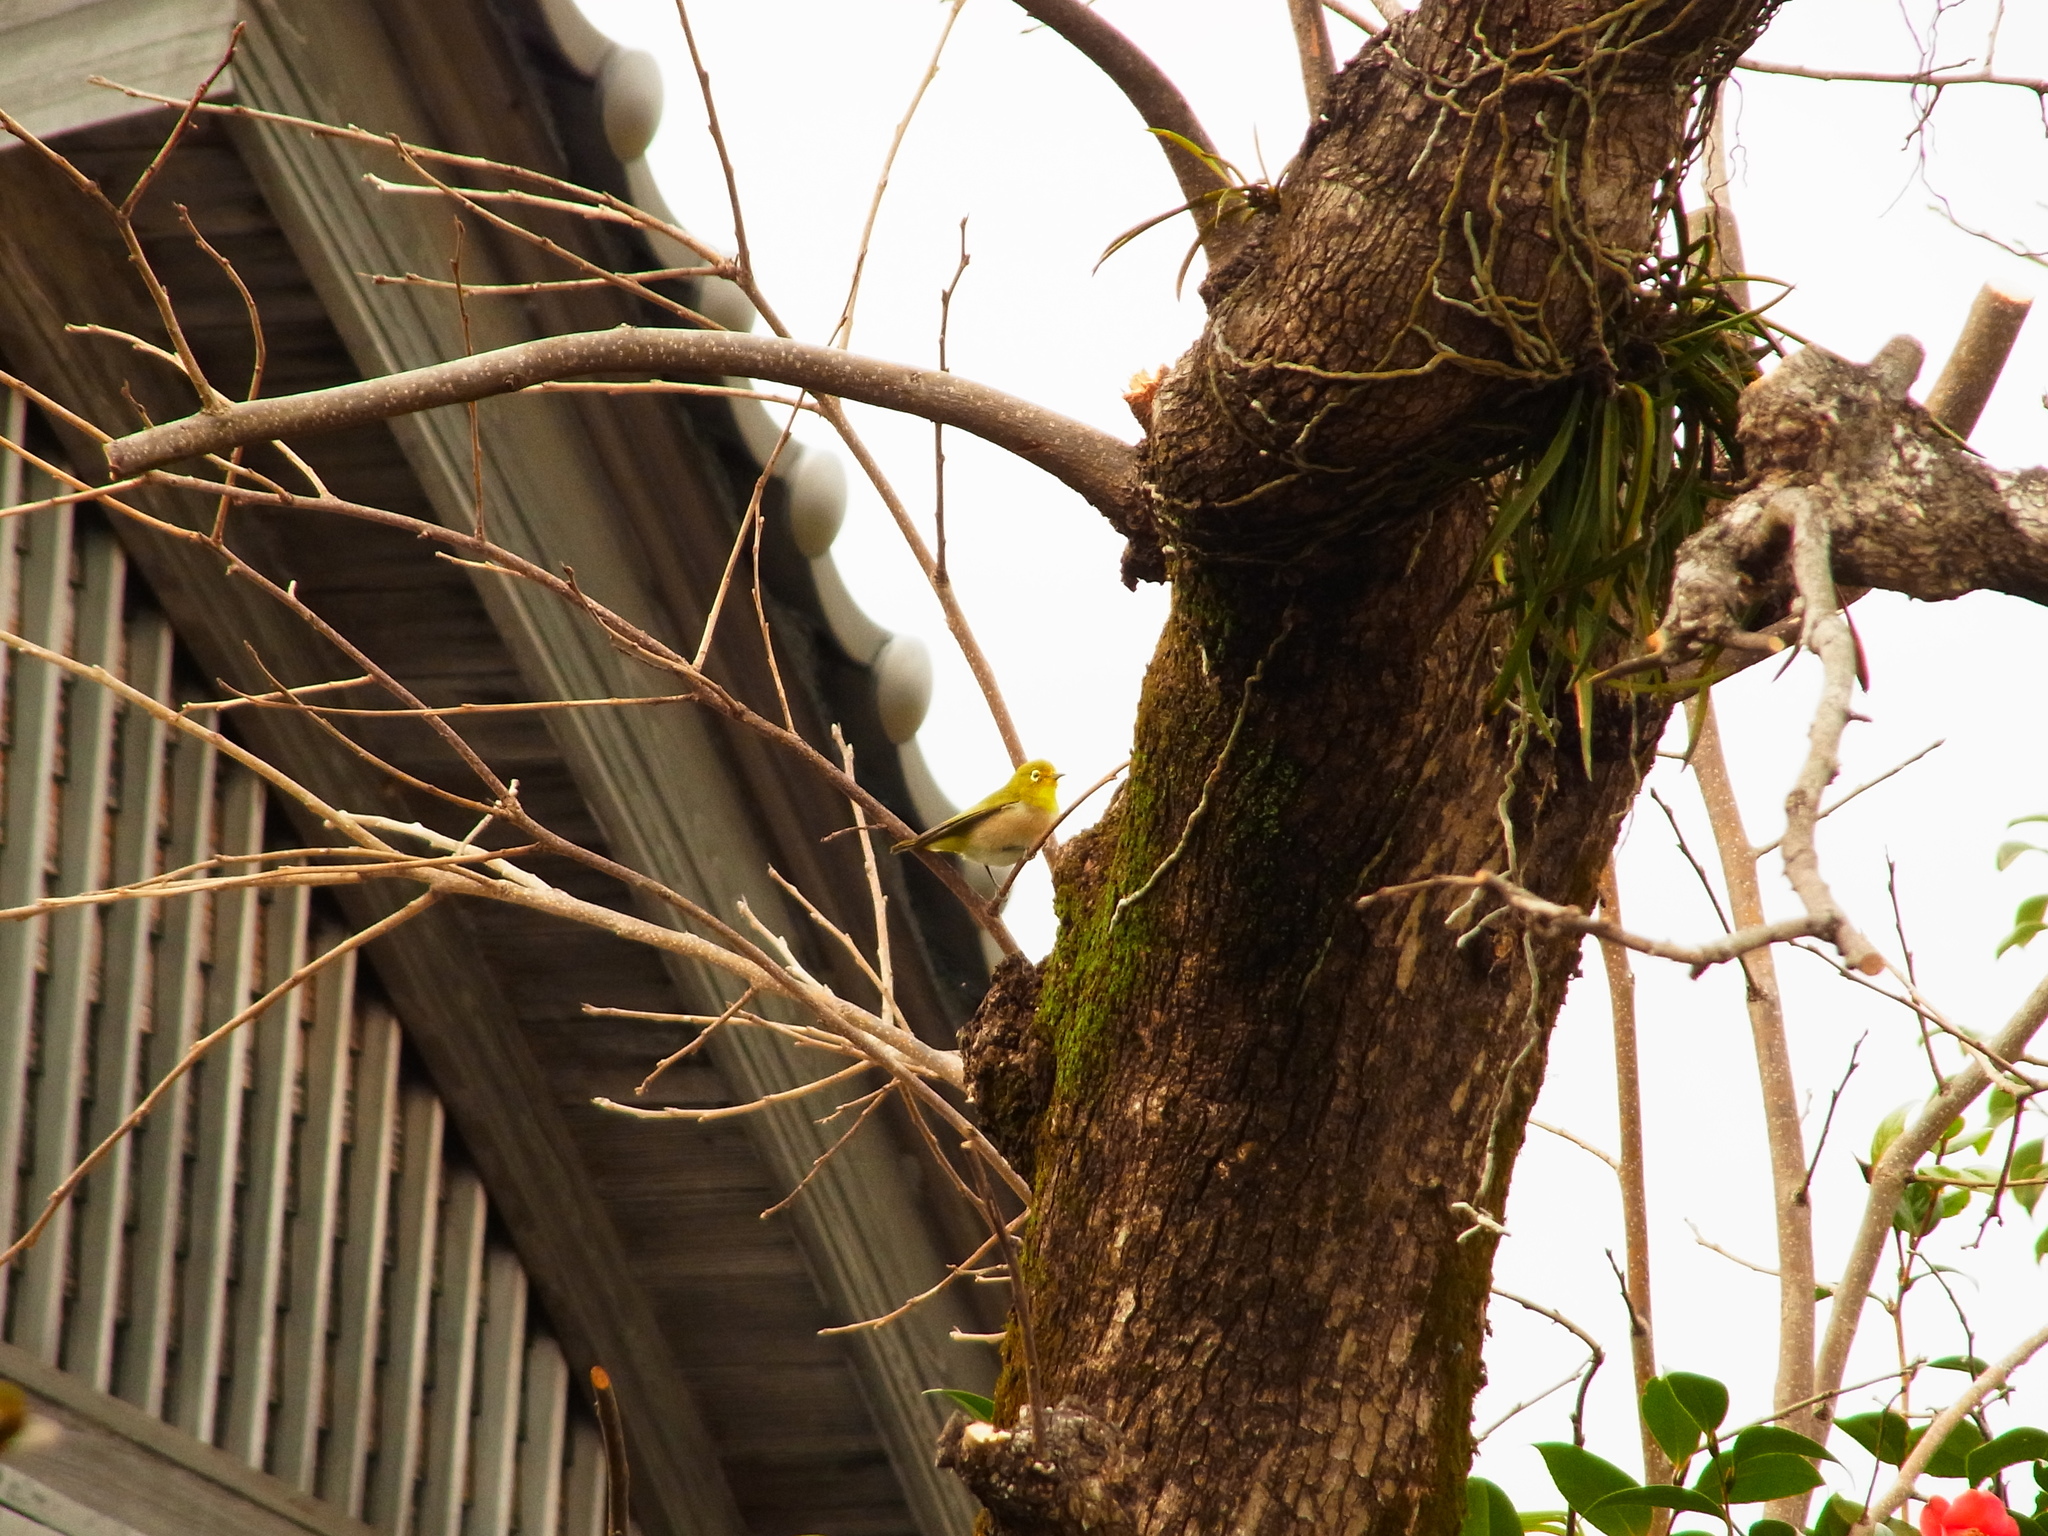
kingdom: Animalia
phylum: Chordata
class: Aves
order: Passeriformes
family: Zosteropidae
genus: Zosterops
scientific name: Zosterops japonicus
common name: Japanese white-eye
